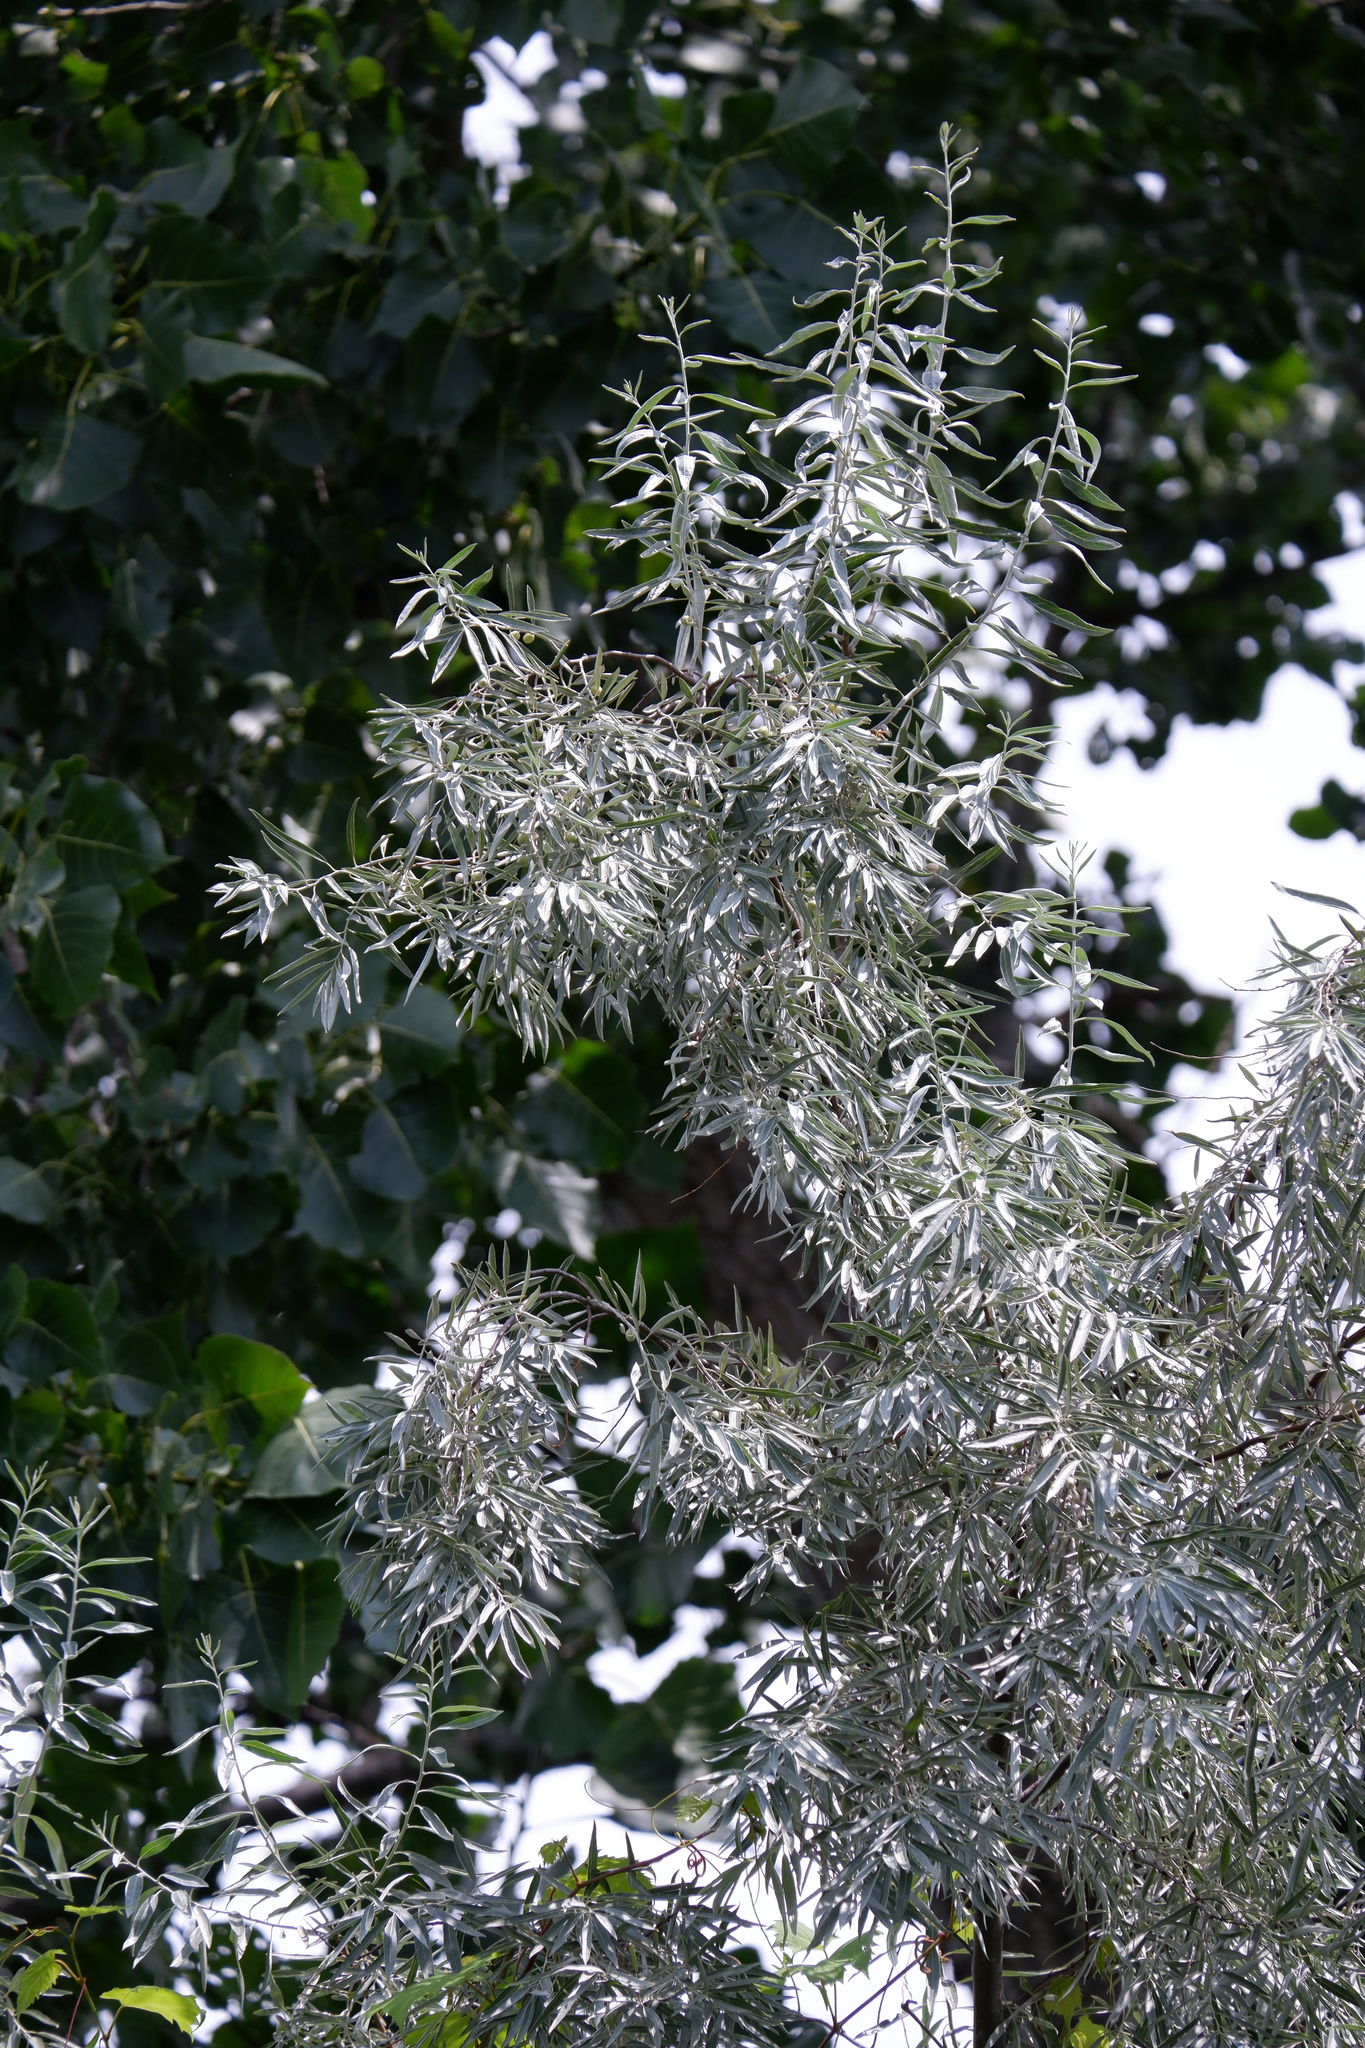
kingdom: Plantae
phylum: Tracheophyta
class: Magnoliopsida
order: Rosales
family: Elaeagnaceae
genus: Elaeagnus
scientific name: Elaeagnus angustifolia
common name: Russian olive
